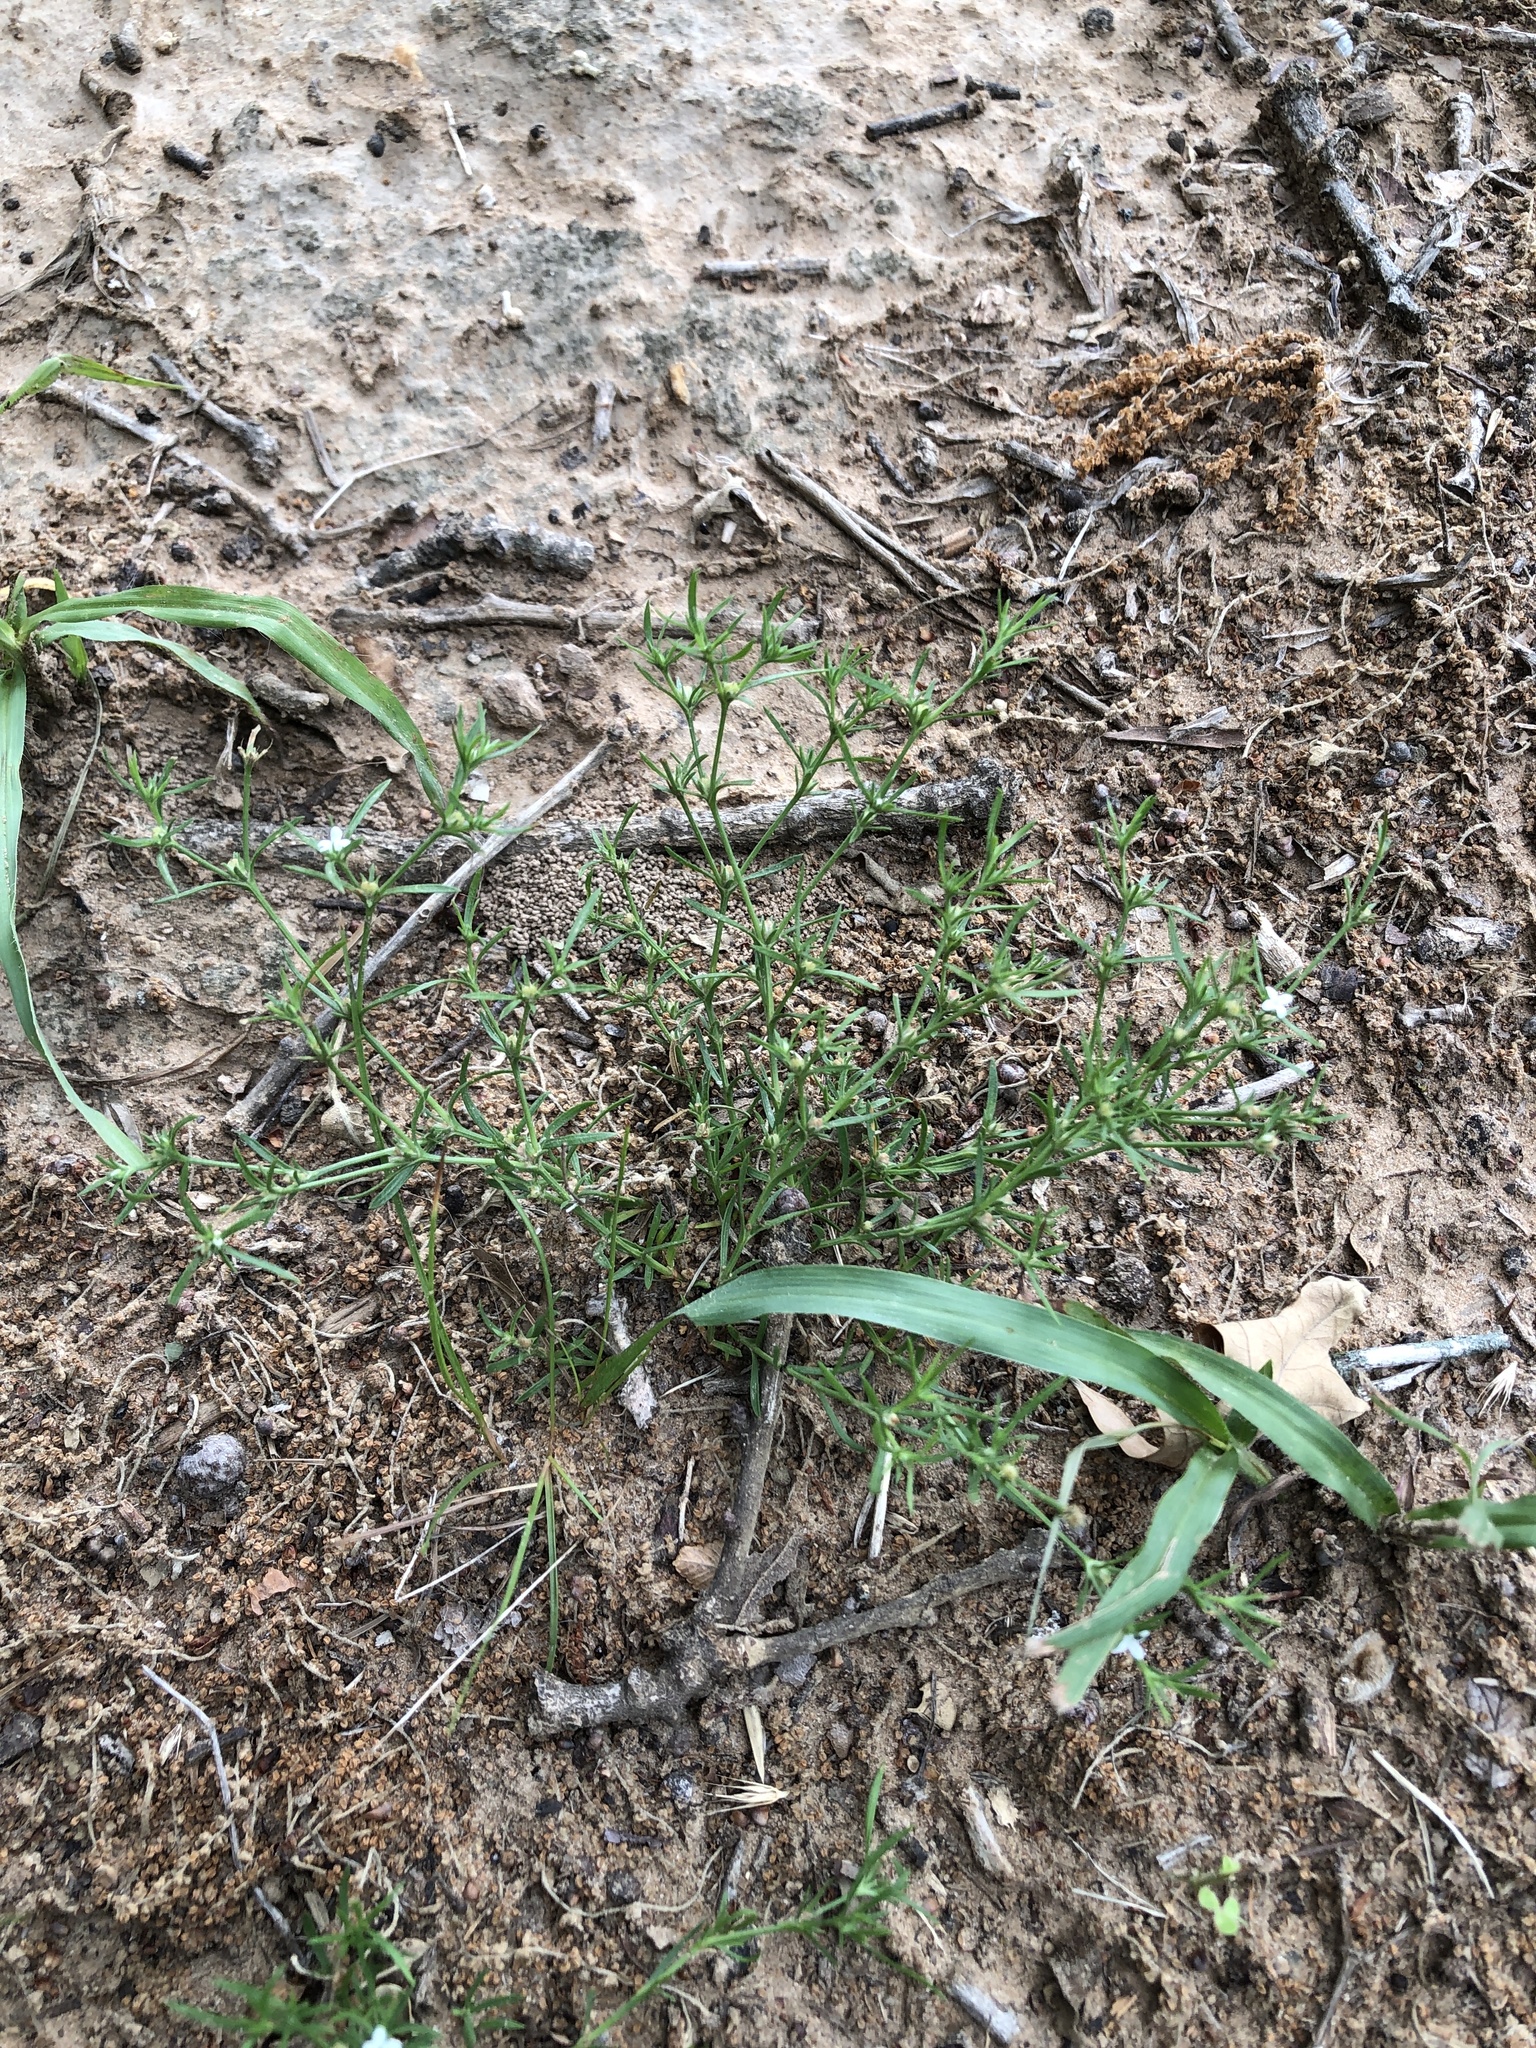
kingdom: Plantae
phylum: Tracheophyta
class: Magnoliopsida
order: Lamiales
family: Tetrachondraceae
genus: Polypremum
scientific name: Polypremum procumbens
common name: Juniper-leaf
